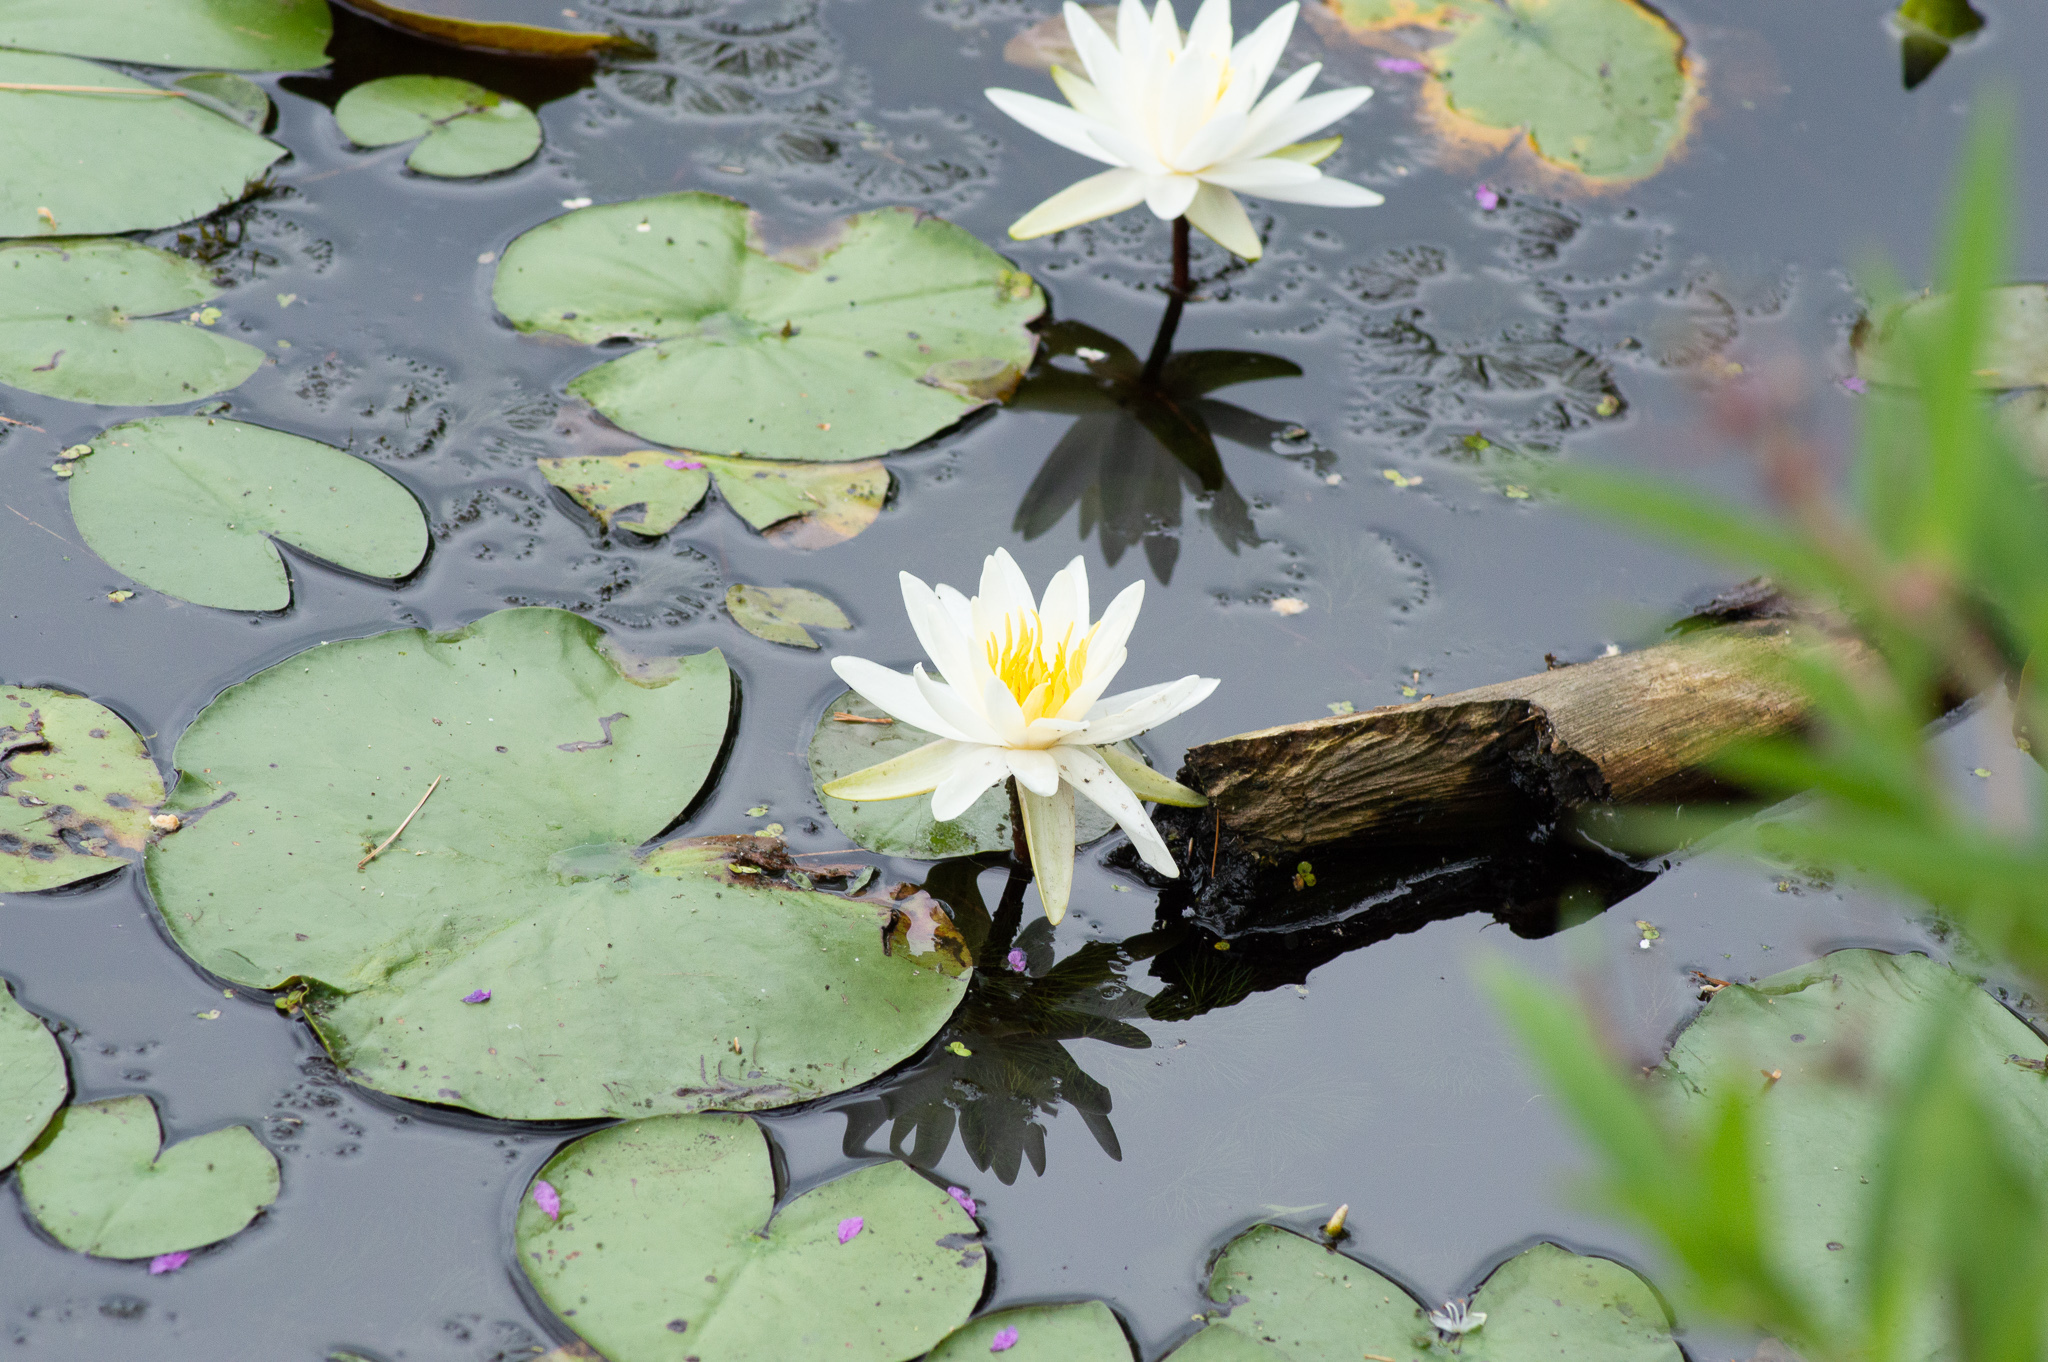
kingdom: Plantae
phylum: Tracheophyta
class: Magnoliopsida
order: Nymphaeales
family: Nymphaeaceae
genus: Nymphaea
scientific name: Nymphaea odorata
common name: Fragrant water-lily
